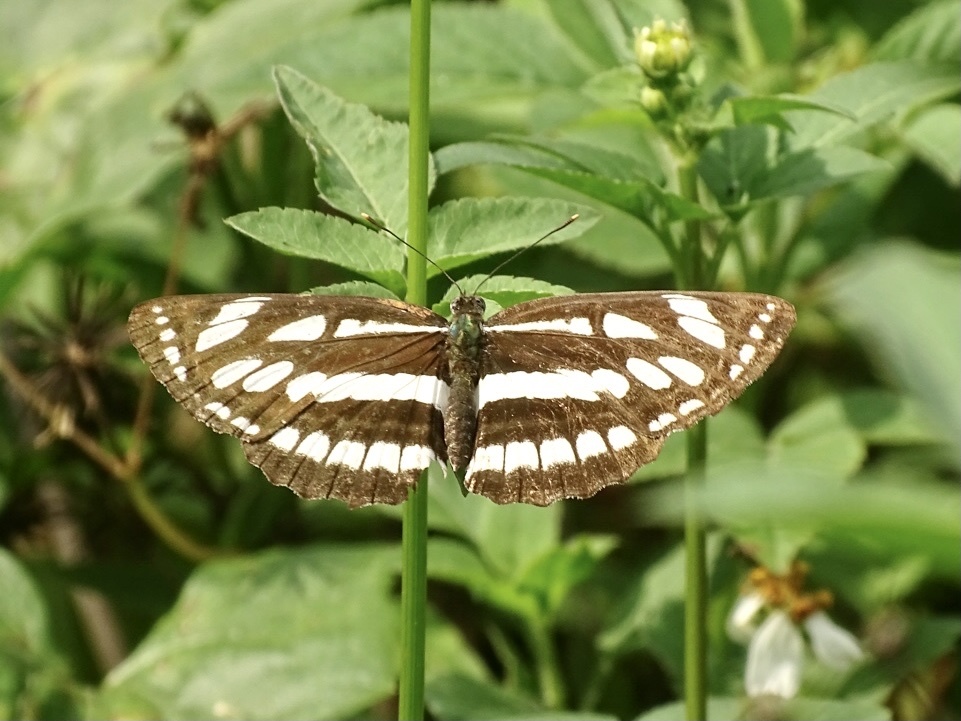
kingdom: Animalia
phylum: Arthropoda
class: Insecta
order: Lepidoptera
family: Nymphalidae
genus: Neptis
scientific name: Neptis hylas
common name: Common sailer
